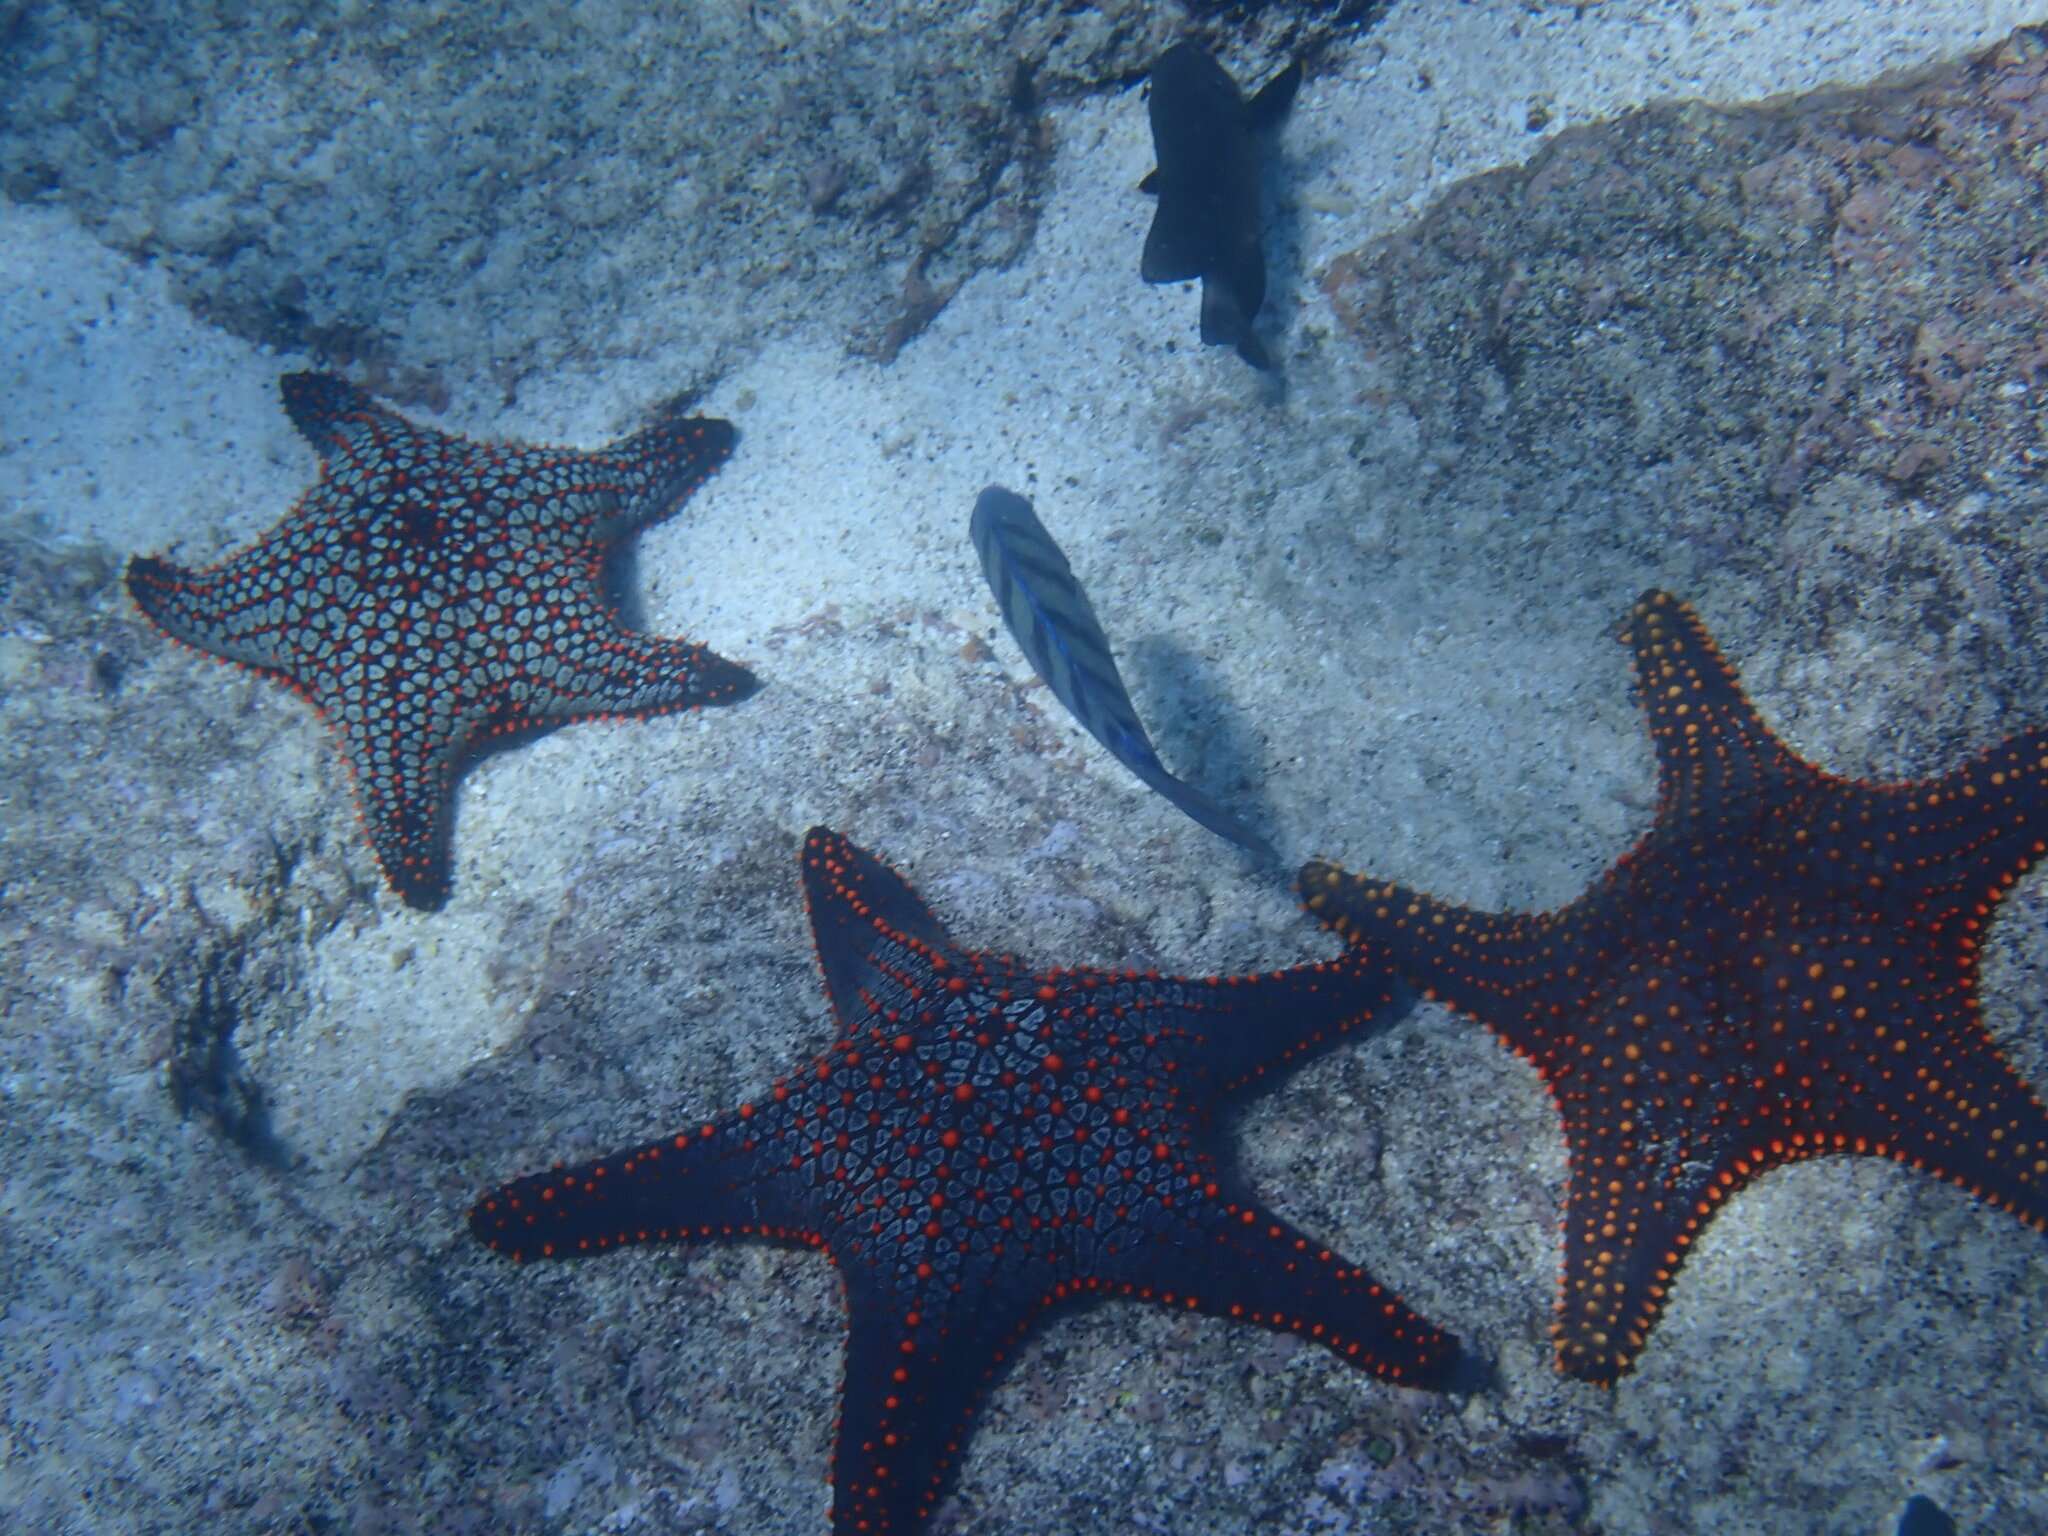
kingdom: Animalia
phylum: Echinodermata
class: Asteroidea
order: Valvatida
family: Oreasteridae
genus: Pentaceraster
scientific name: Pentaceraster cumingi
